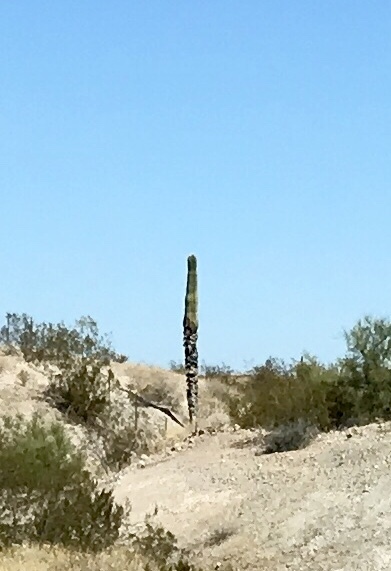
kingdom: Plantae
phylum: Tracheophyta
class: Magnoliopsida
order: Caryophyllales
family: Cactaceae
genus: Carnegiea
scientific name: Carnegiea gigantea
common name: Saguaro
